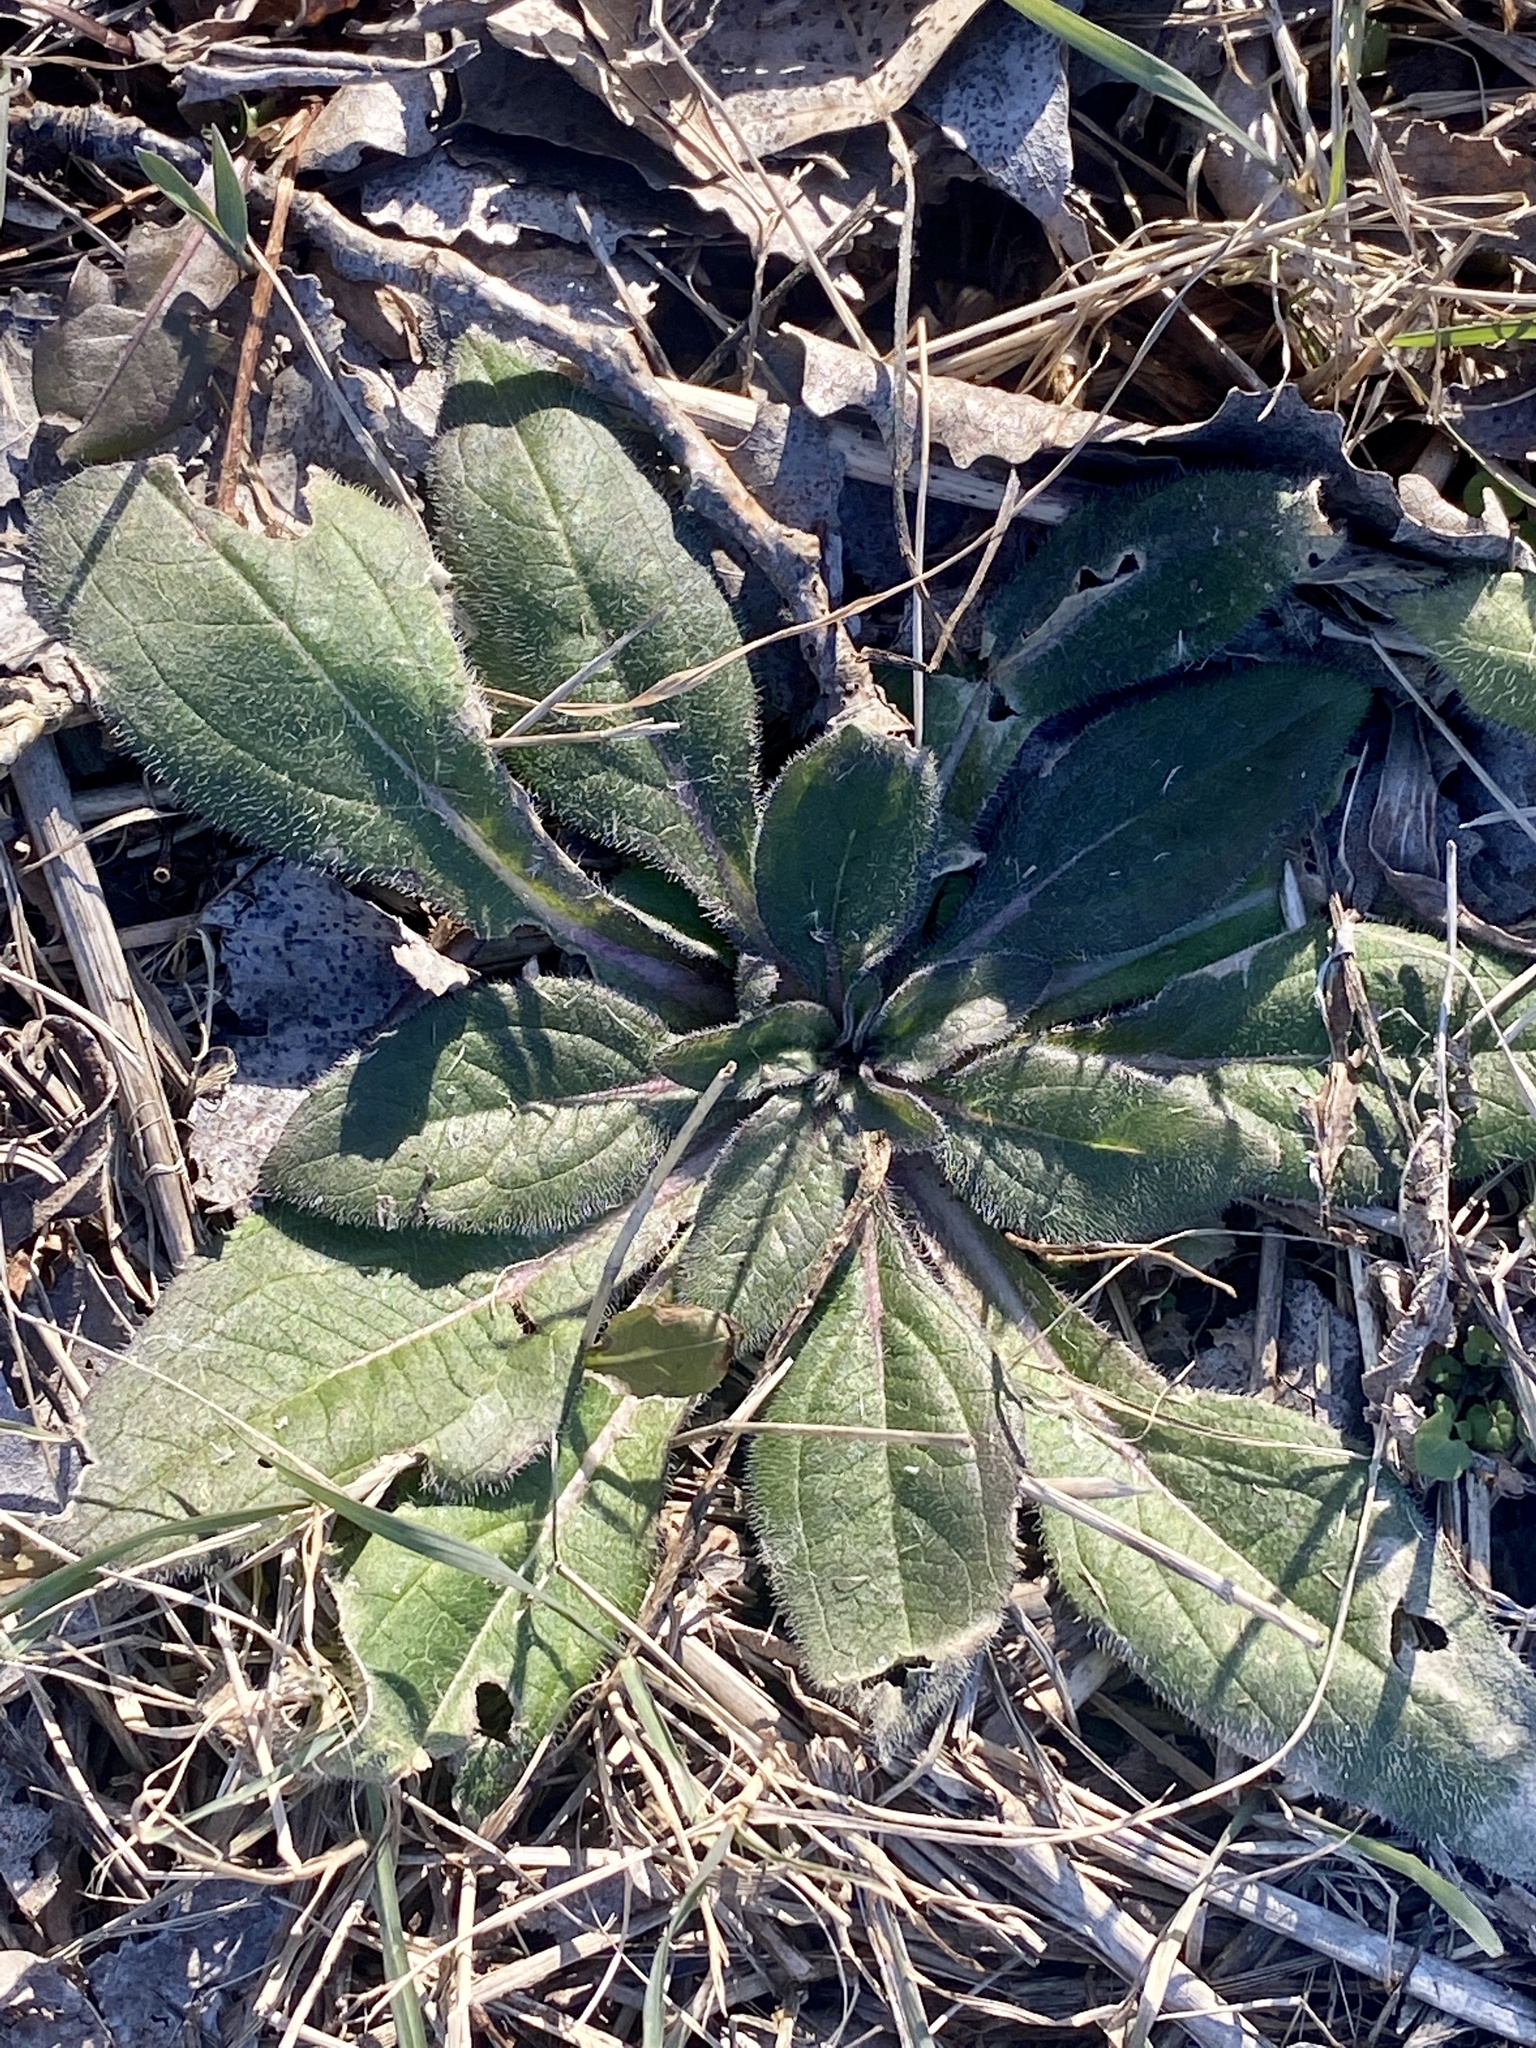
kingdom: Plantae
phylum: Tracheophyta
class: Magnoliopsida
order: Asterales
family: Asteraceae
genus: Rudbeckia
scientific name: Rudbeckia hirta
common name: Black-eyed-susan
